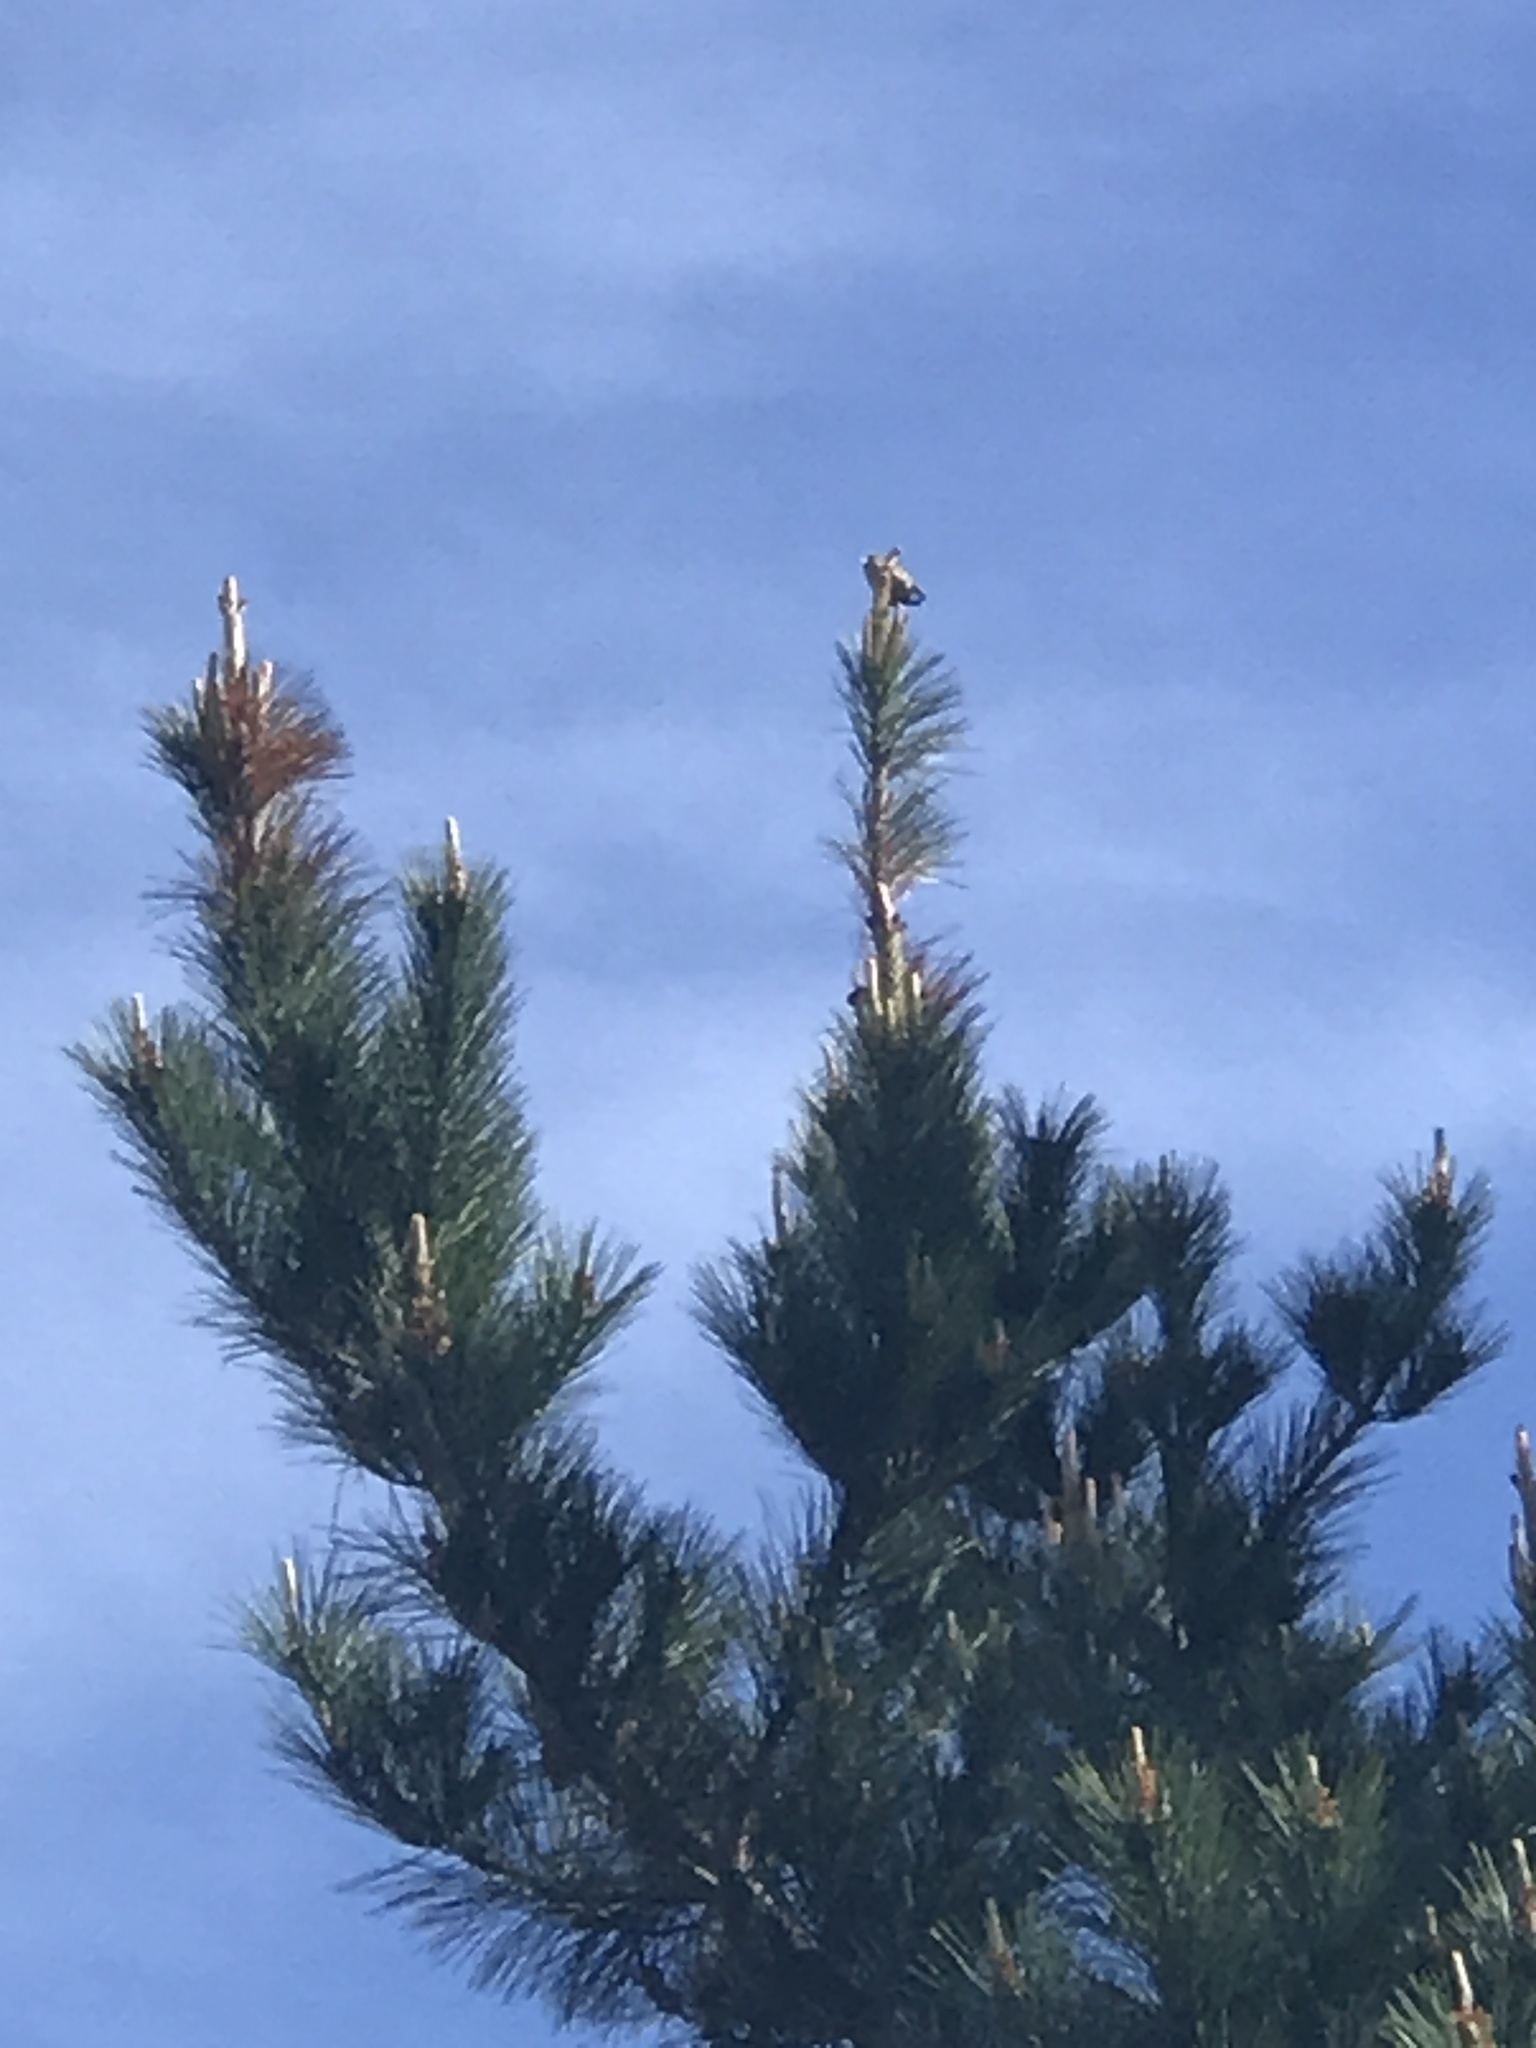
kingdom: Animalia
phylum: Chordata
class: Aves
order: Passeriformes
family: Fringillidae
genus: Loxia
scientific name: Loxia curvirostra
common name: Red crossbill
